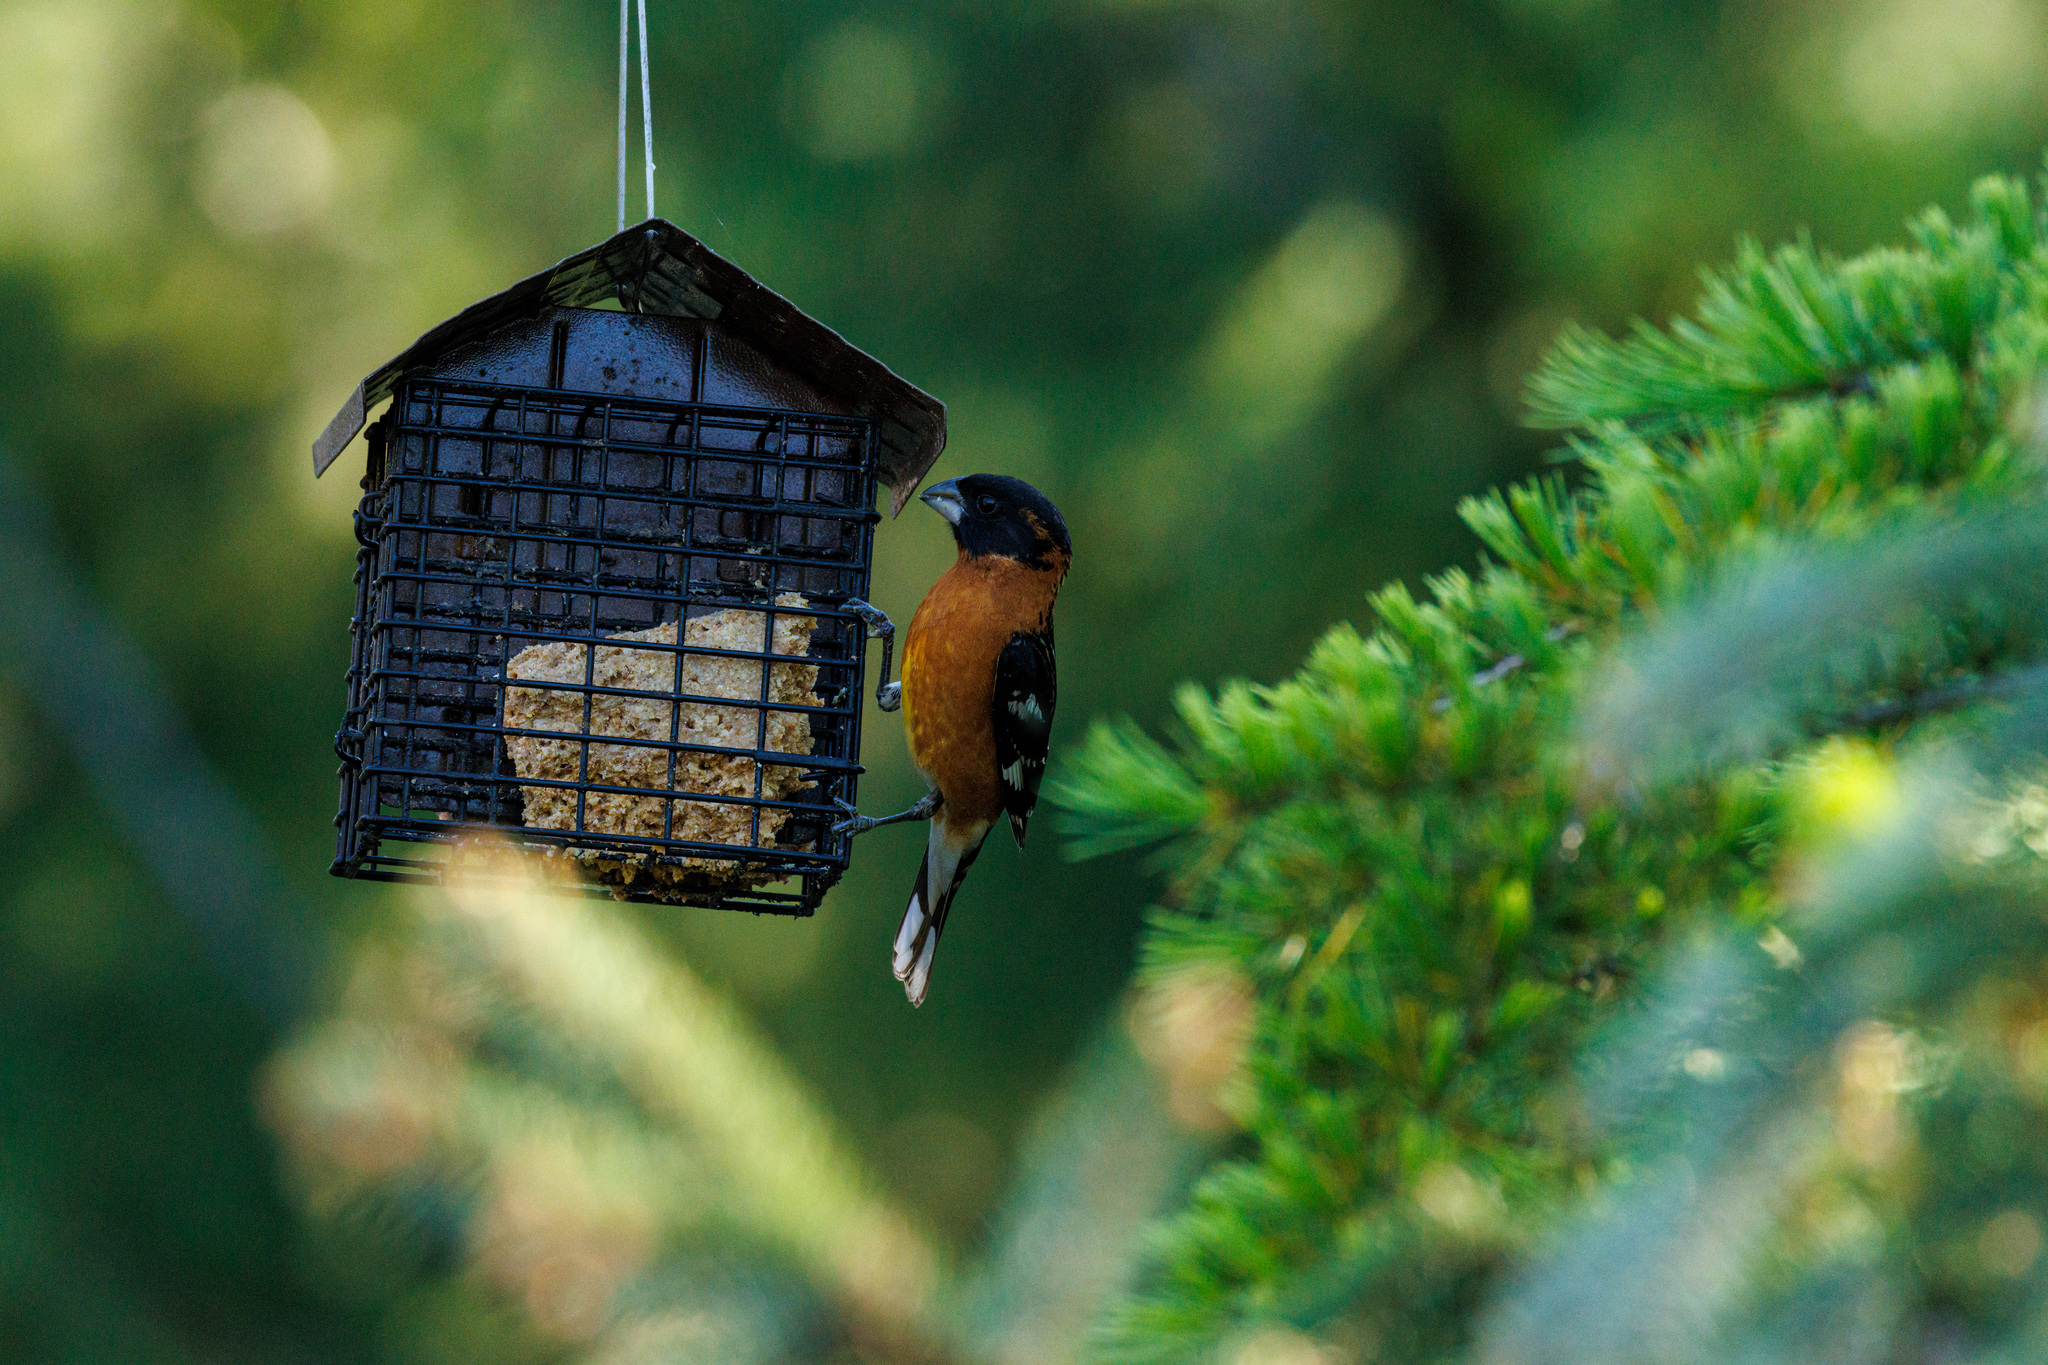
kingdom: Animalia
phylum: Chordata
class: Aves
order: Passeriformes
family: Cardinalidae
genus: Pheucticus
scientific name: Pheucticus melanocephalus
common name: Black-headed grosbeak
